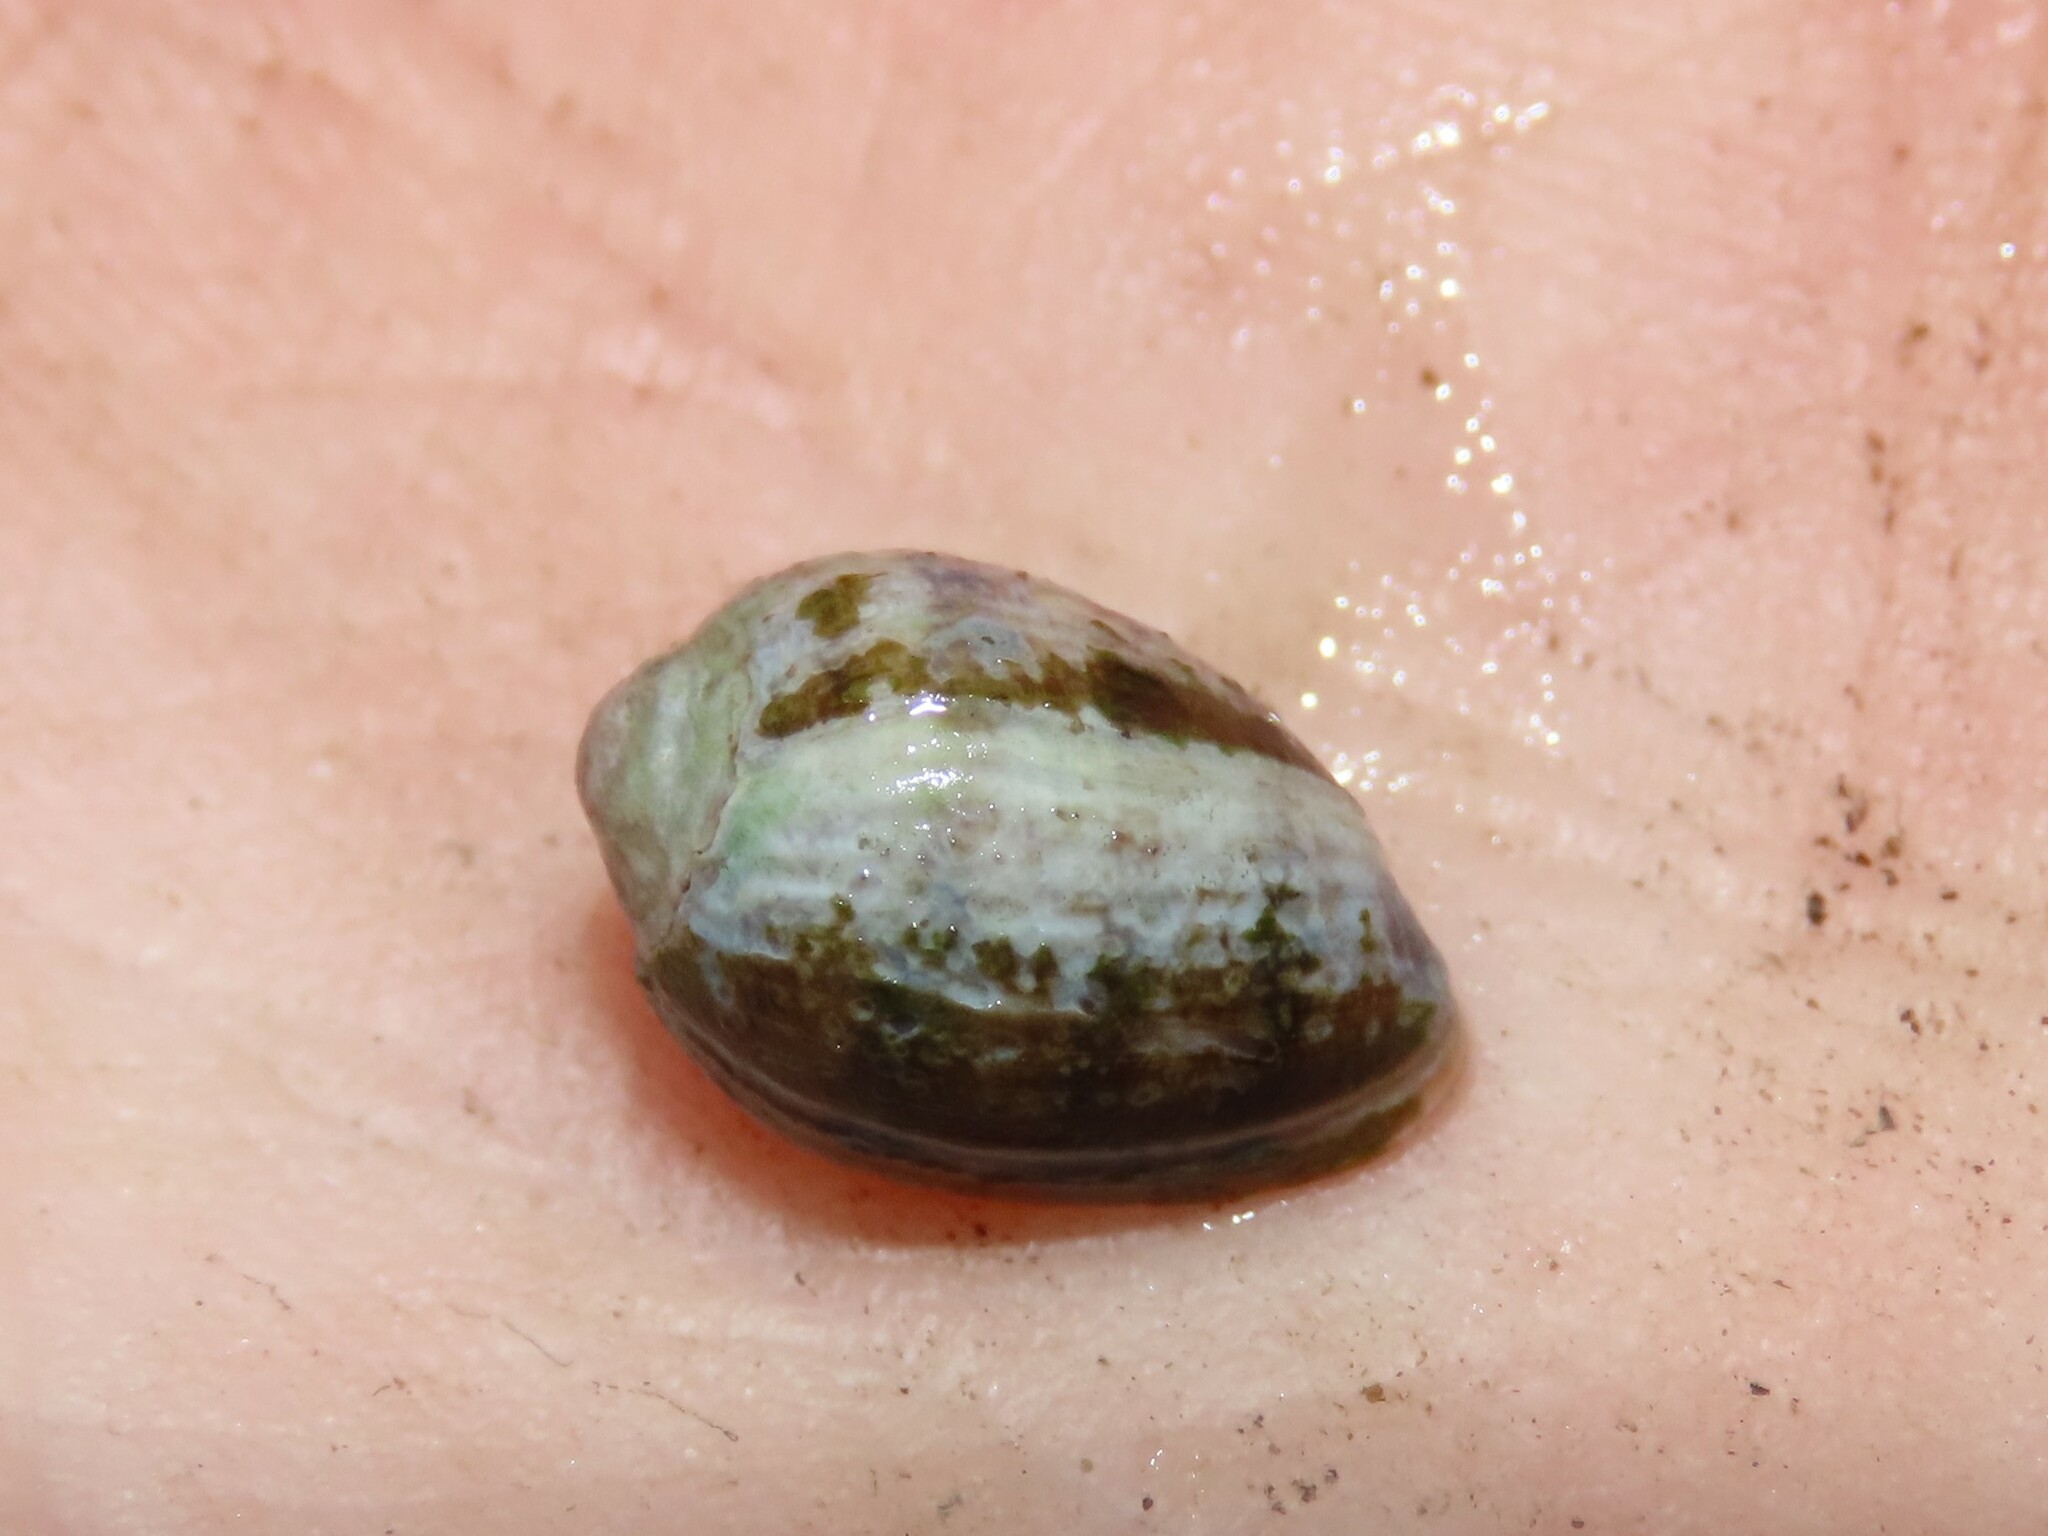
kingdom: Animalia
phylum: Mollusca
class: Gastropoda
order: Ellobiida
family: Ellobiidae
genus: Melampus
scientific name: Melampus bidentatus
